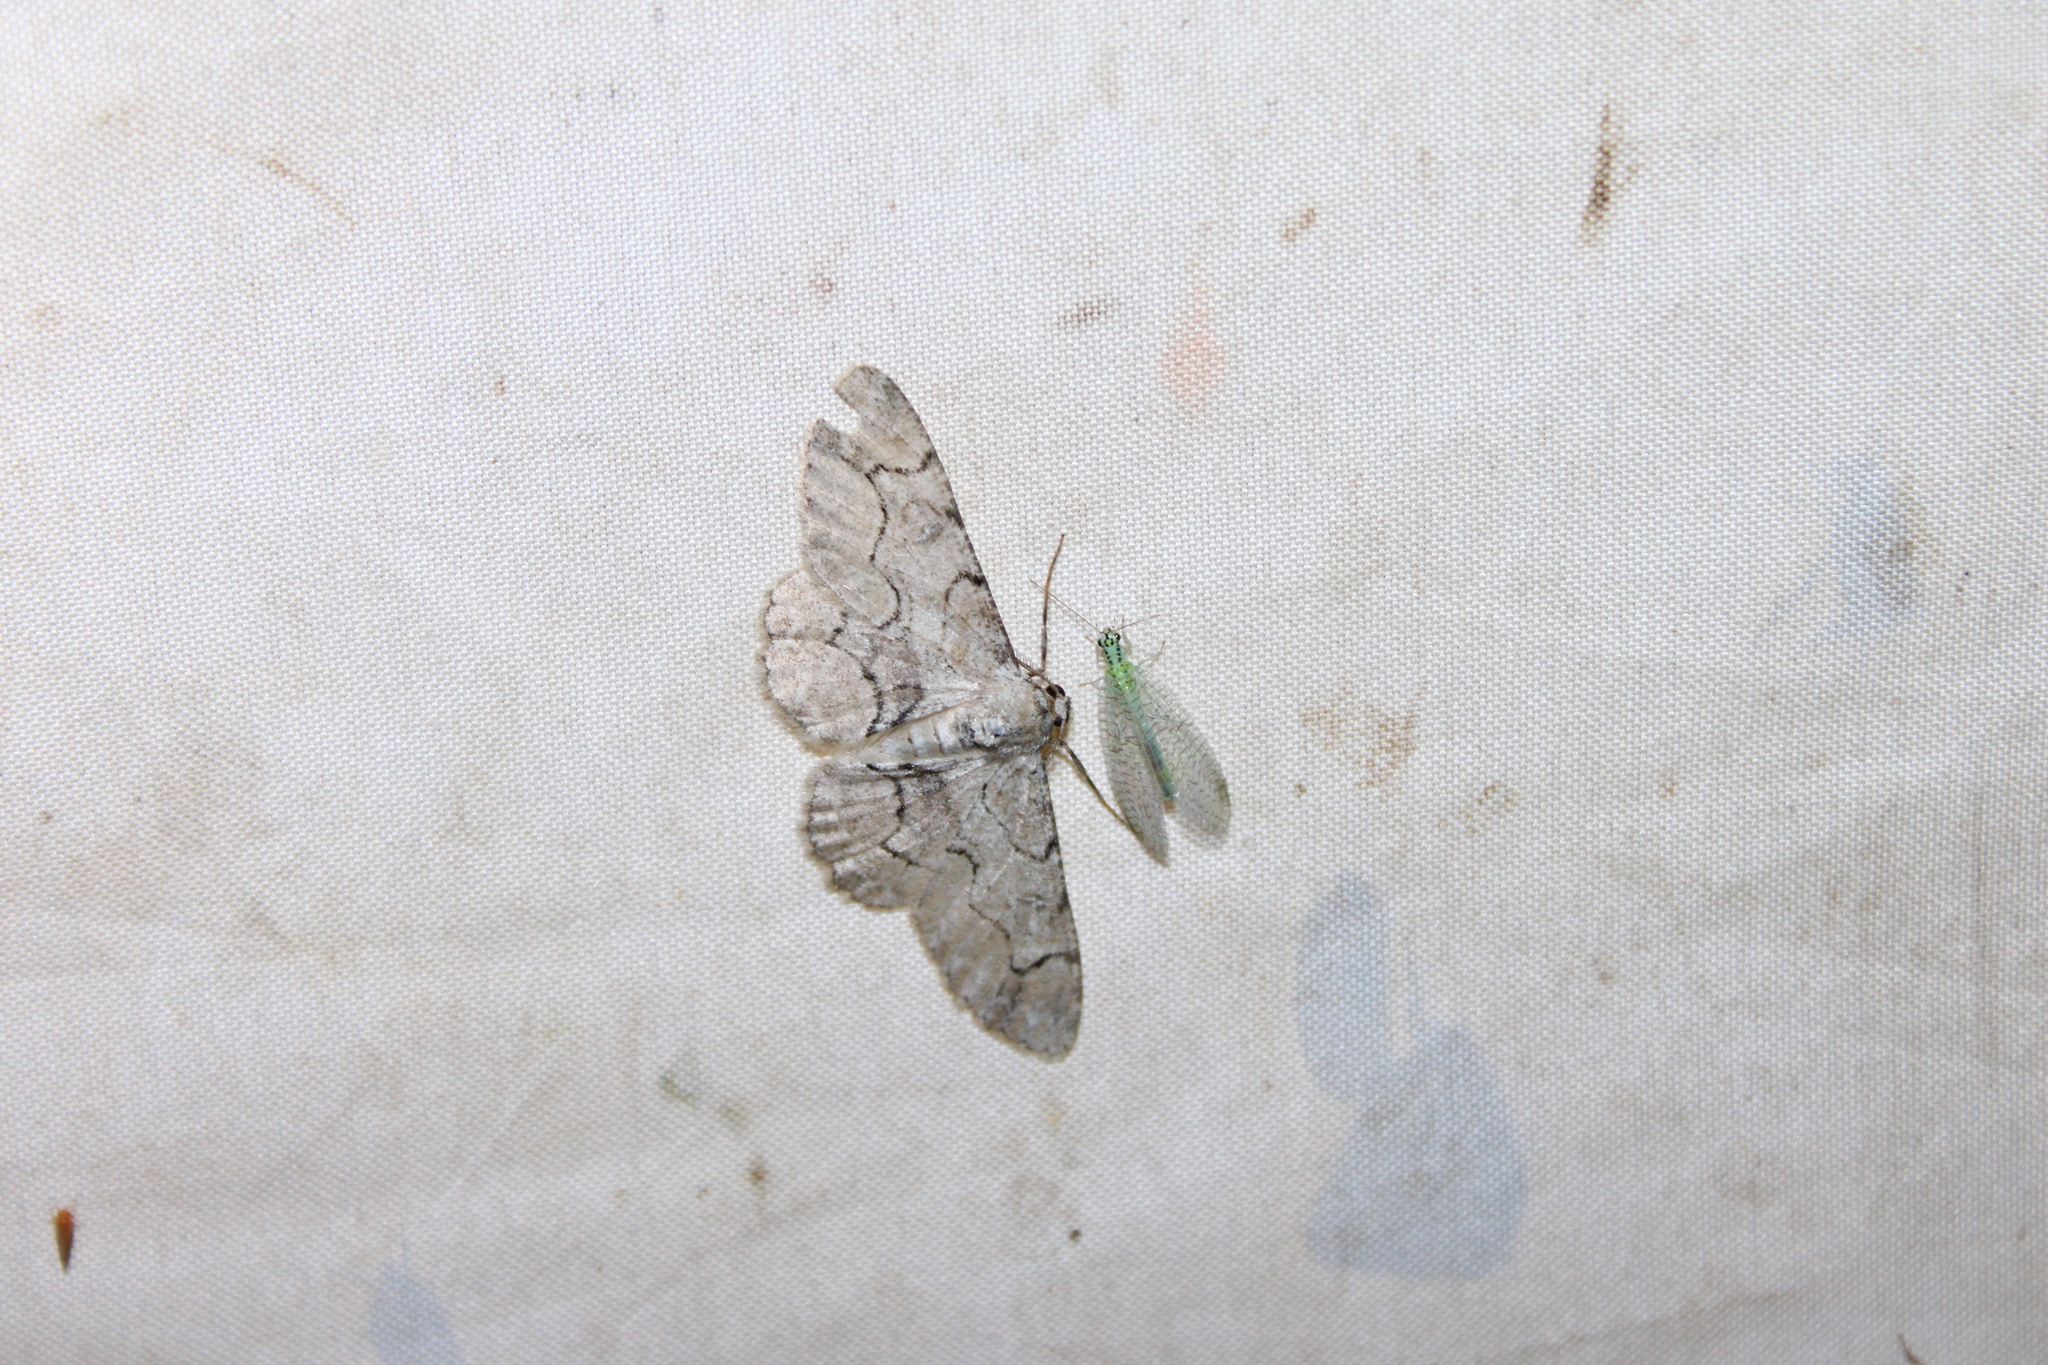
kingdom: Animalia
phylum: Arthropoda
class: Insecta
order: Lepidoptera
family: Geometridae
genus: Iridopsis
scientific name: Iridopsis larvaria
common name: Bent-line gray
